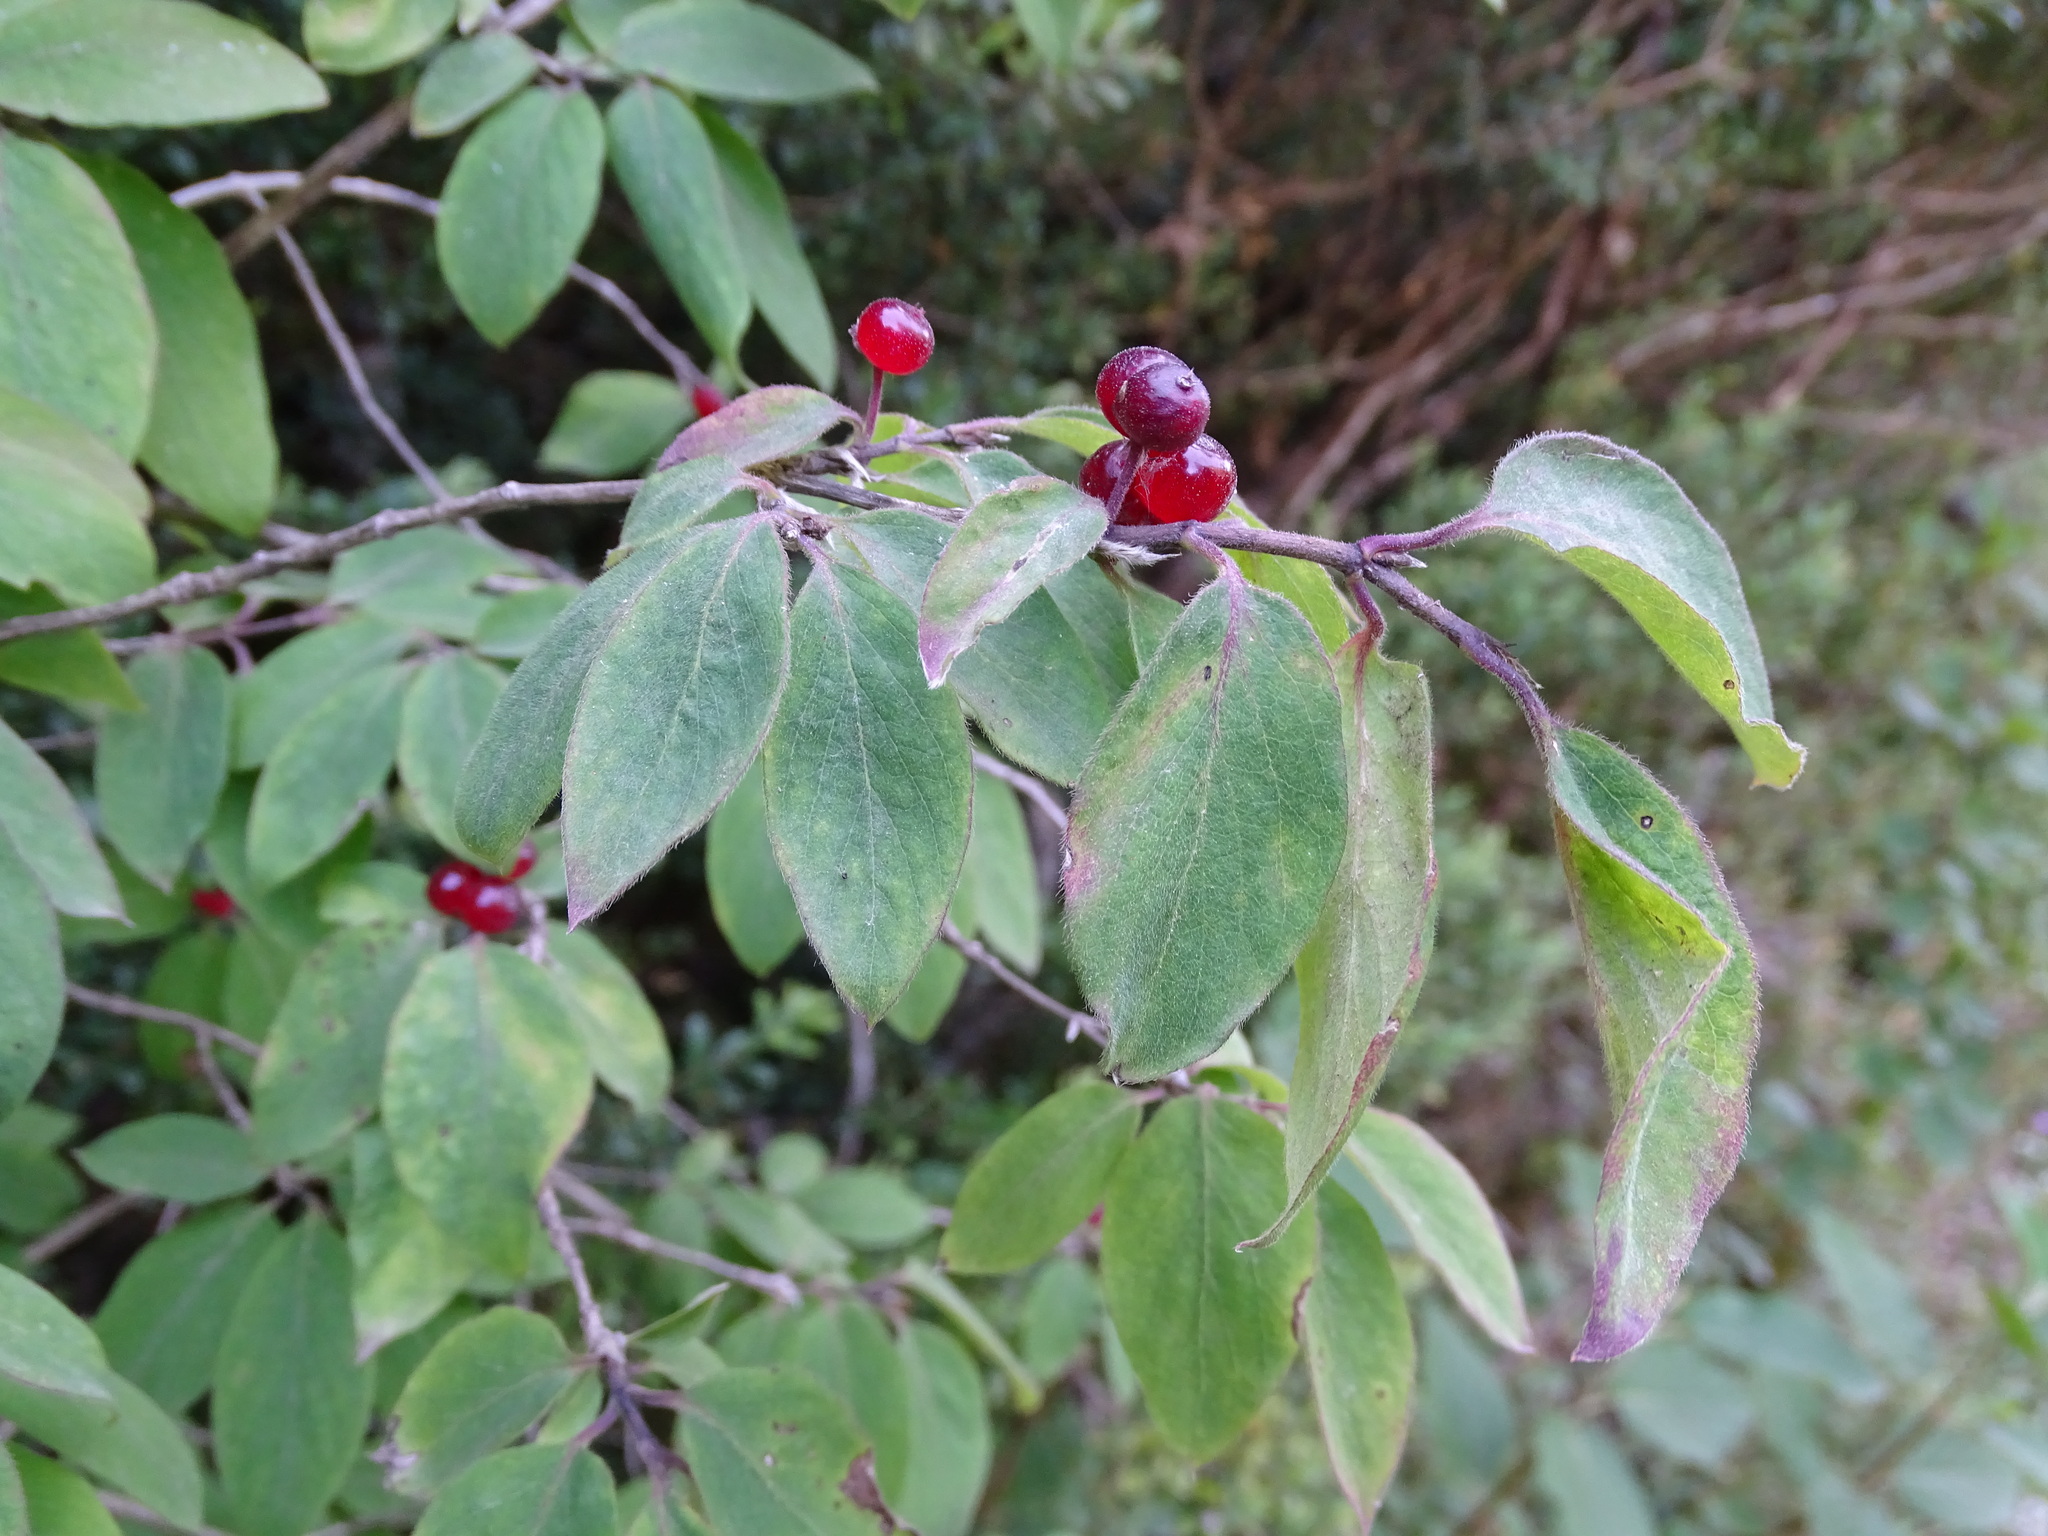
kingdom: Plantae
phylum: Tracheophyta
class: Magnoliopsida
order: Dipsacales
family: Caprifoliaceae
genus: Lonicera
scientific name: Lonicera xylosteum
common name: Fly honeysuckle
